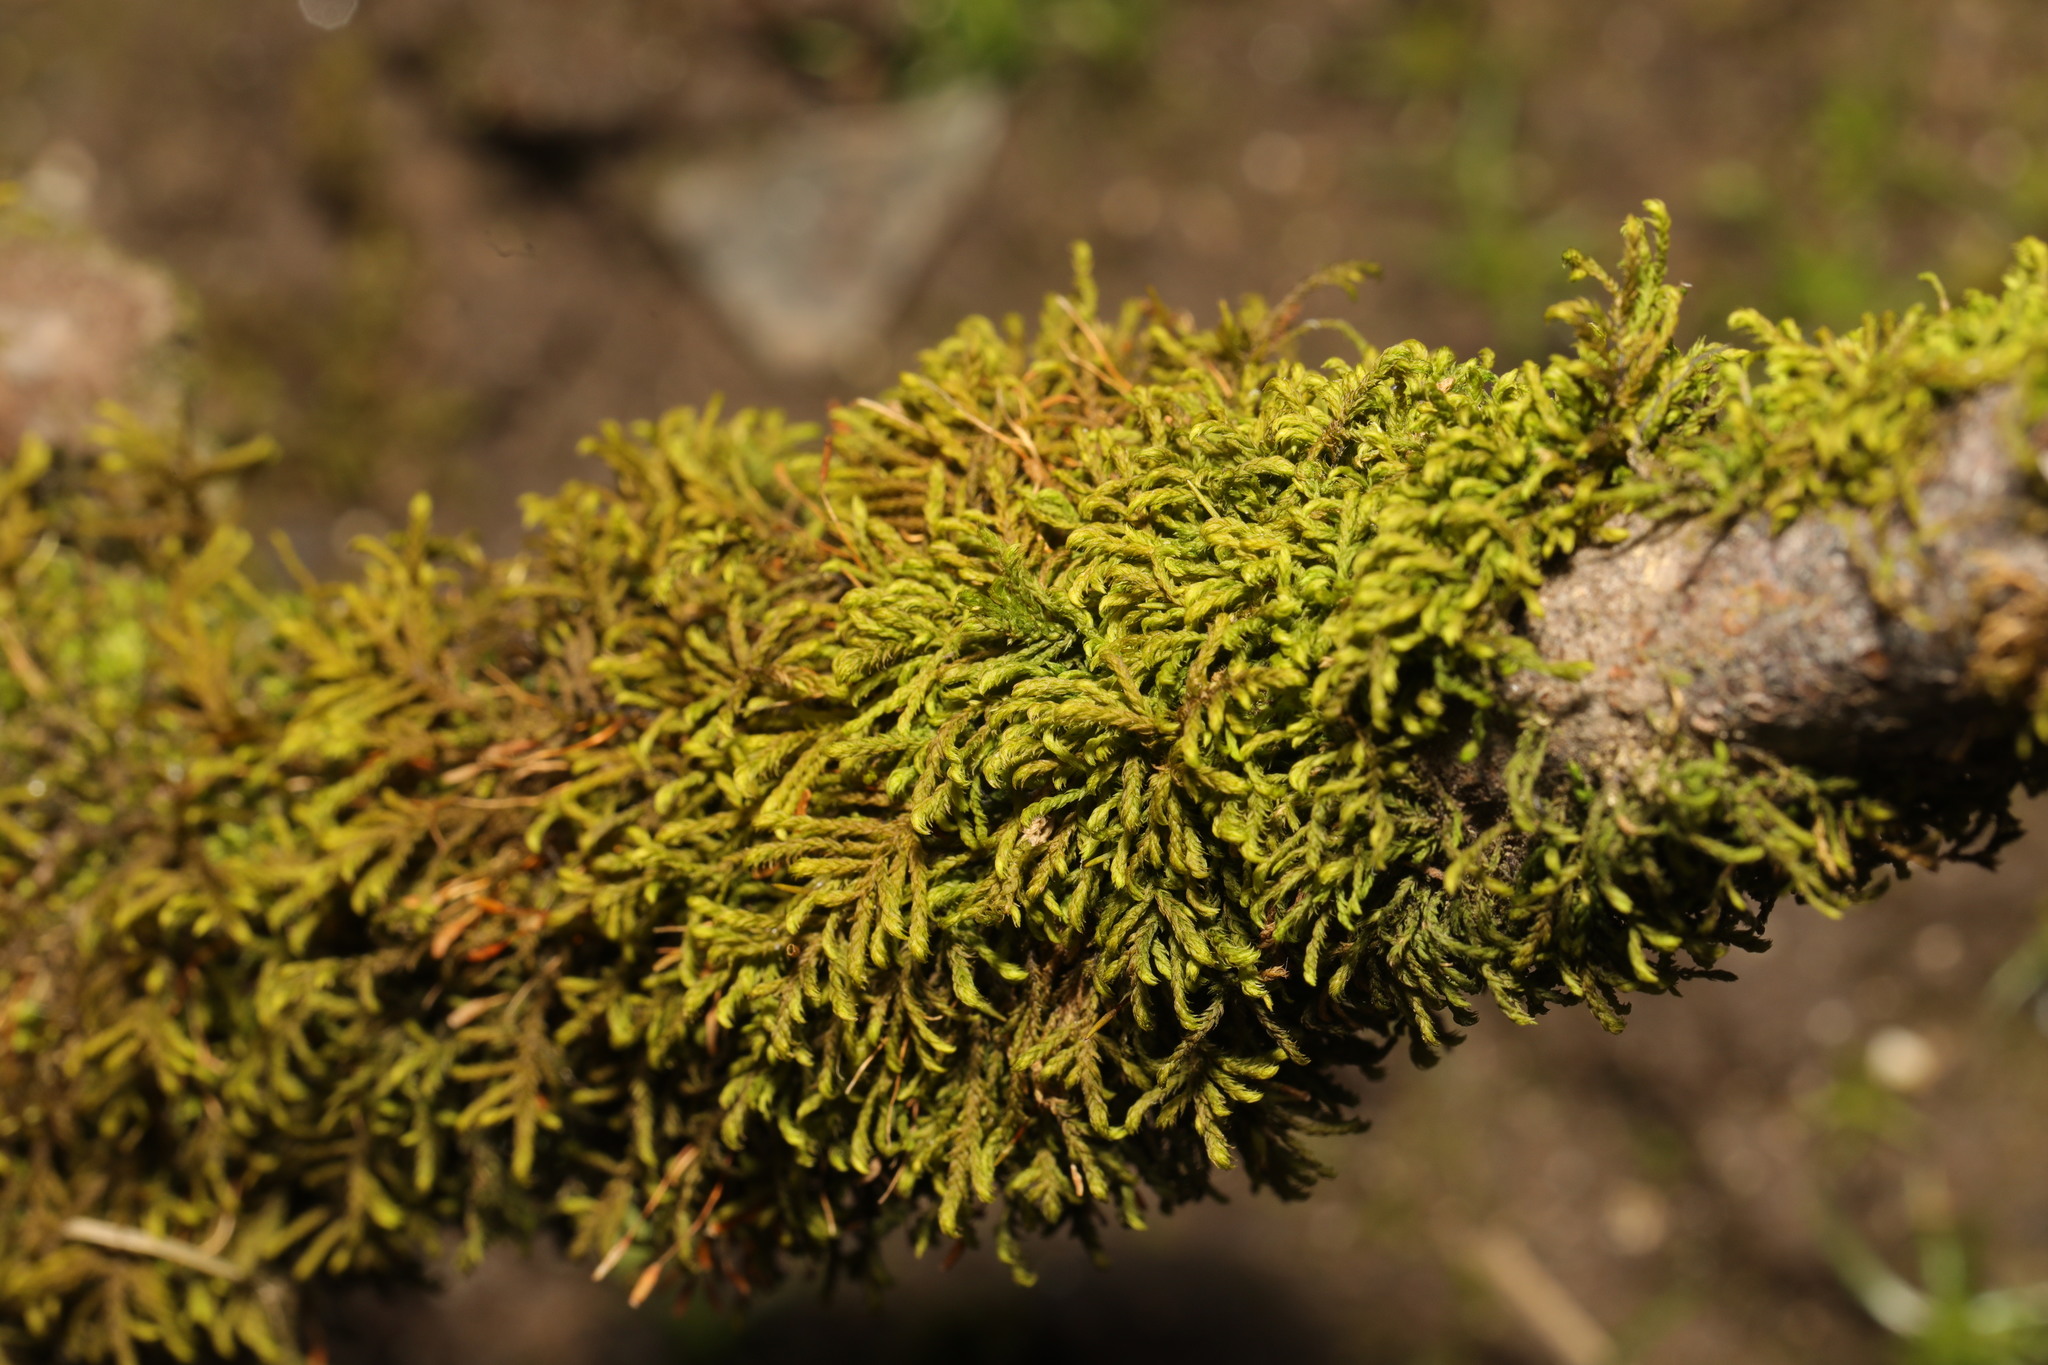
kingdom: Plantae
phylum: Bryophyta
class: Bryopsida
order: Hypnales
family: Leskeaceae
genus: Leskea
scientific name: Leskea polycarpa
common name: Many-fruited leske's moss
